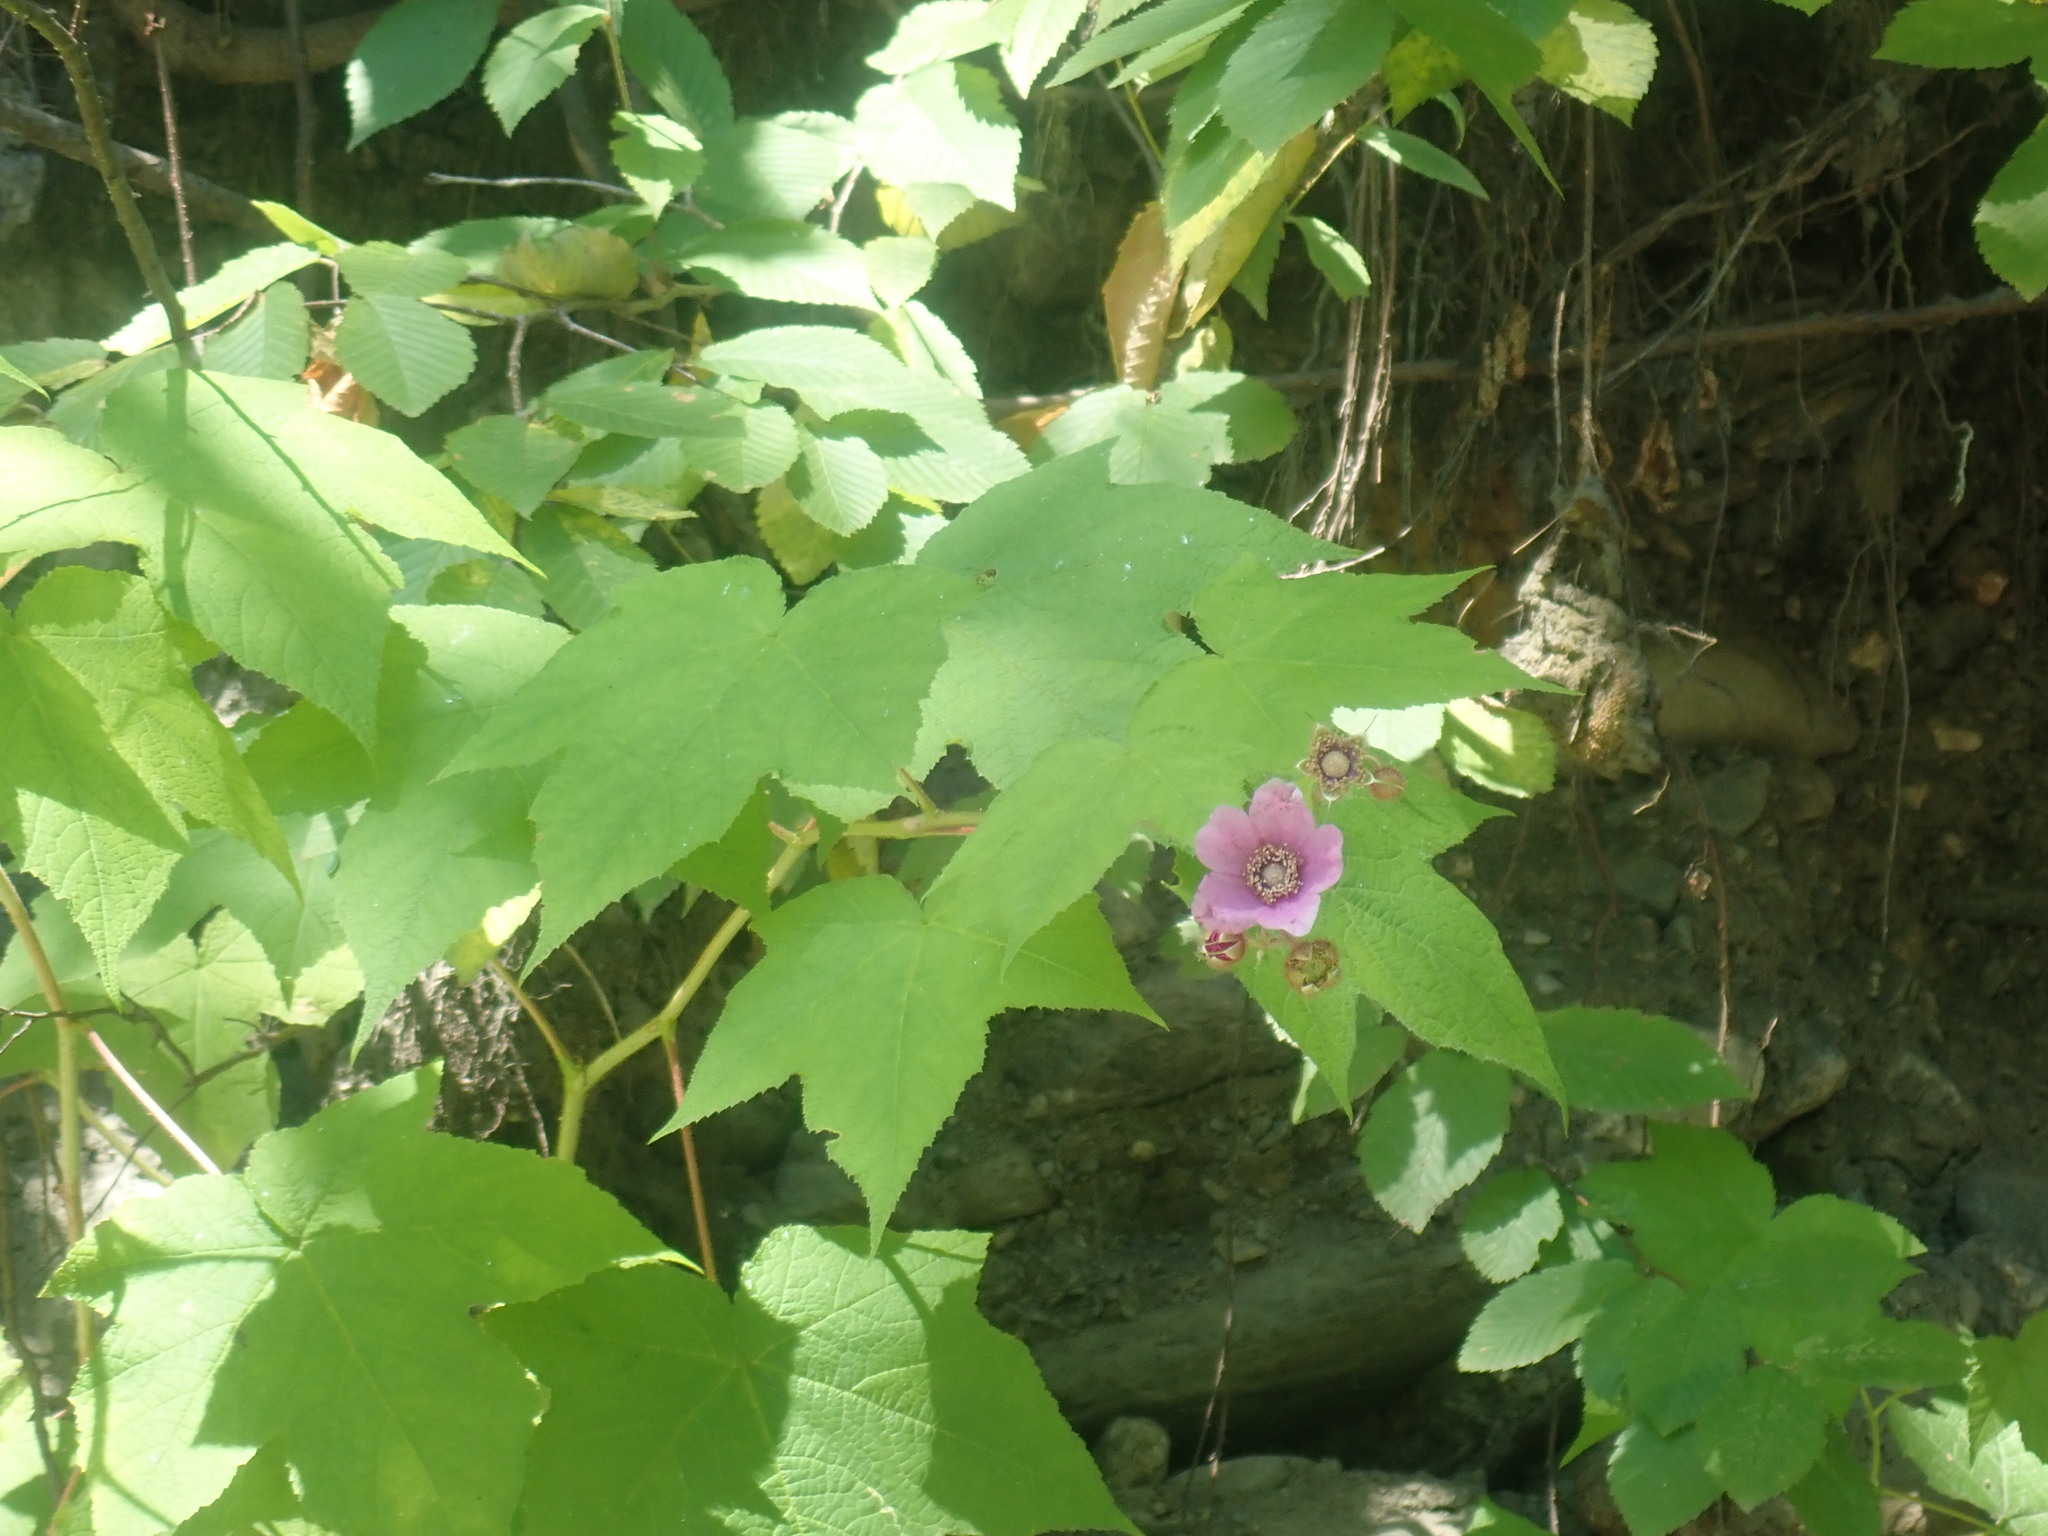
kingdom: Plantae
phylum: Tracheophyta
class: Magnoliopsida
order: Rosales
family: Rosaceae
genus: Rubus
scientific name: Rubus odoratus
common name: Purple-flowered raspberry
